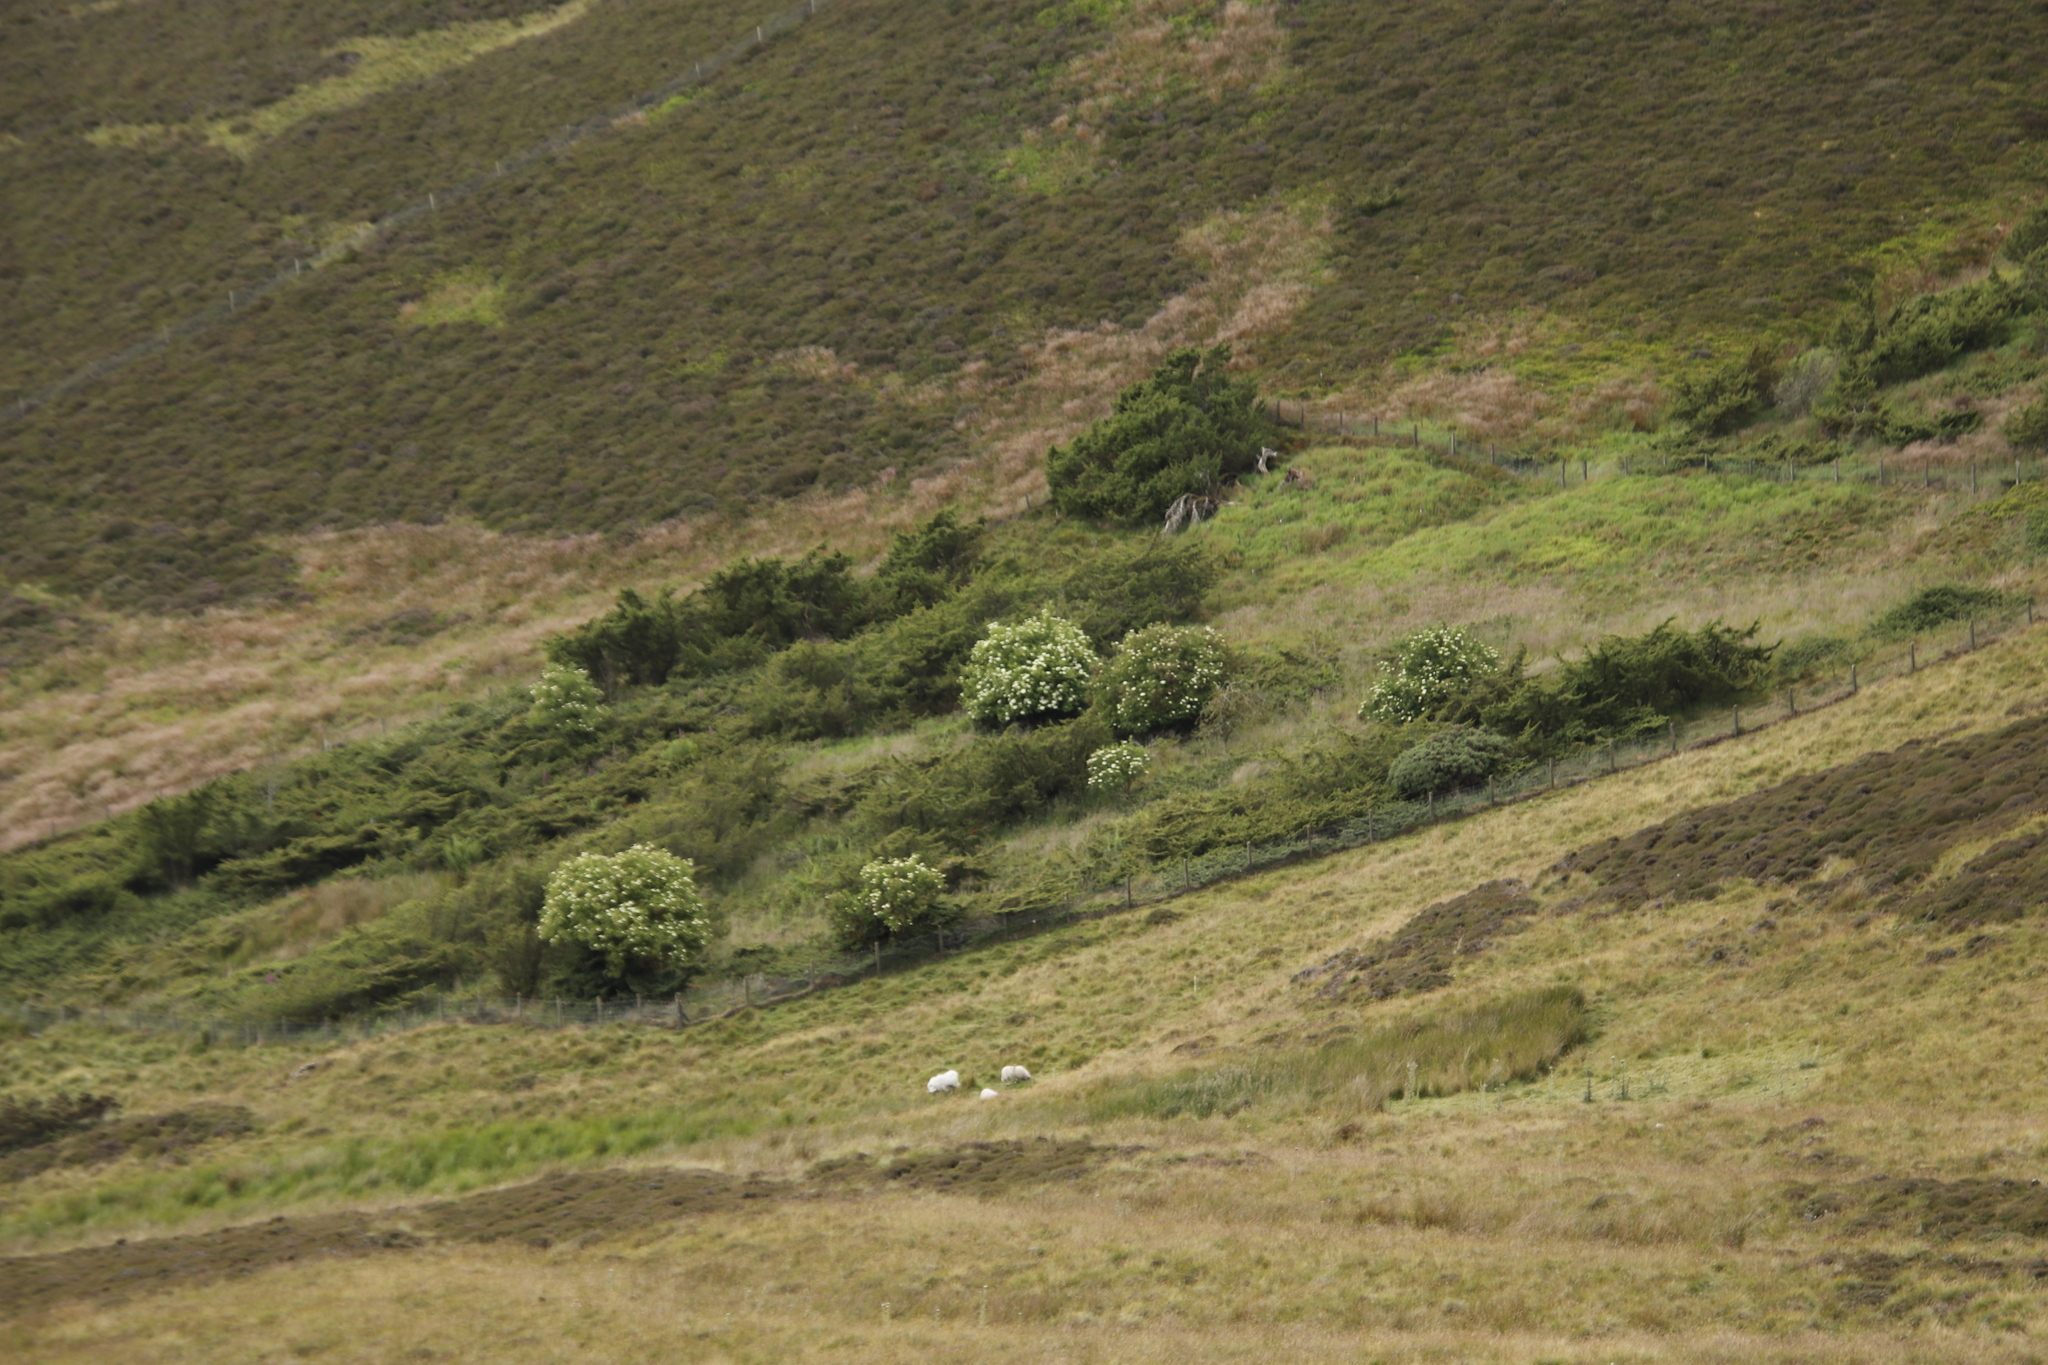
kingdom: Plantae
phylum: Tracheophyta
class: Magnoliopsida
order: Dipsacales
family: Viburnaceae
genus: Sambucus
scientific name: Sambucus nigra
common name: Elder
